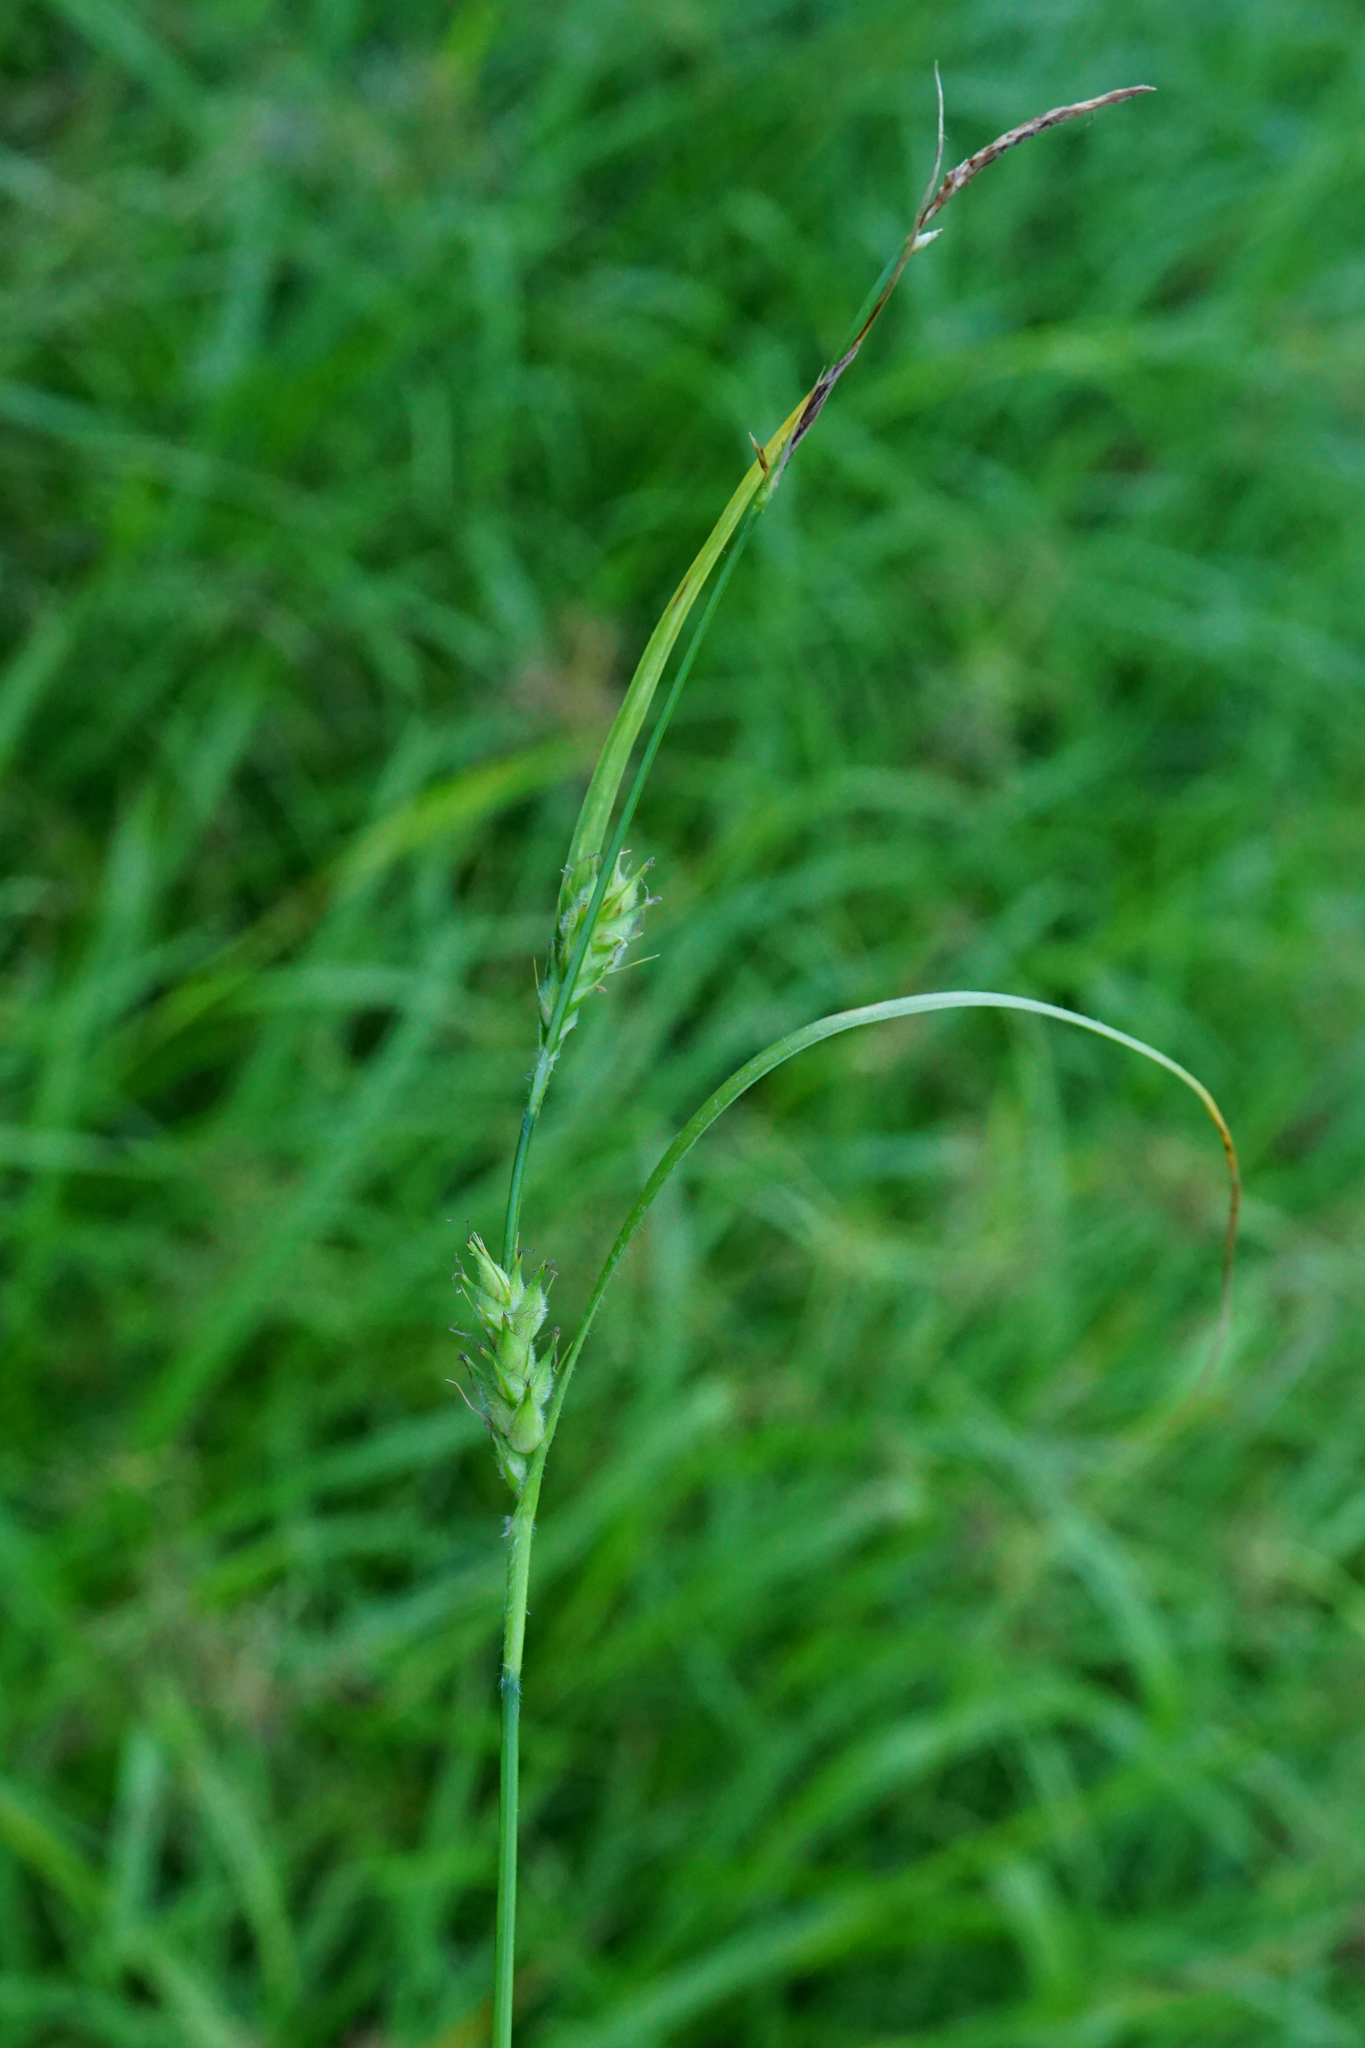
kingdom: Plantae
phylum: Tracheophyta
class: Liliopsida
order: Poales
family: Cyperaceae
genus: Carex
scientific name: Carex hirta
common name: Hairy sedge
